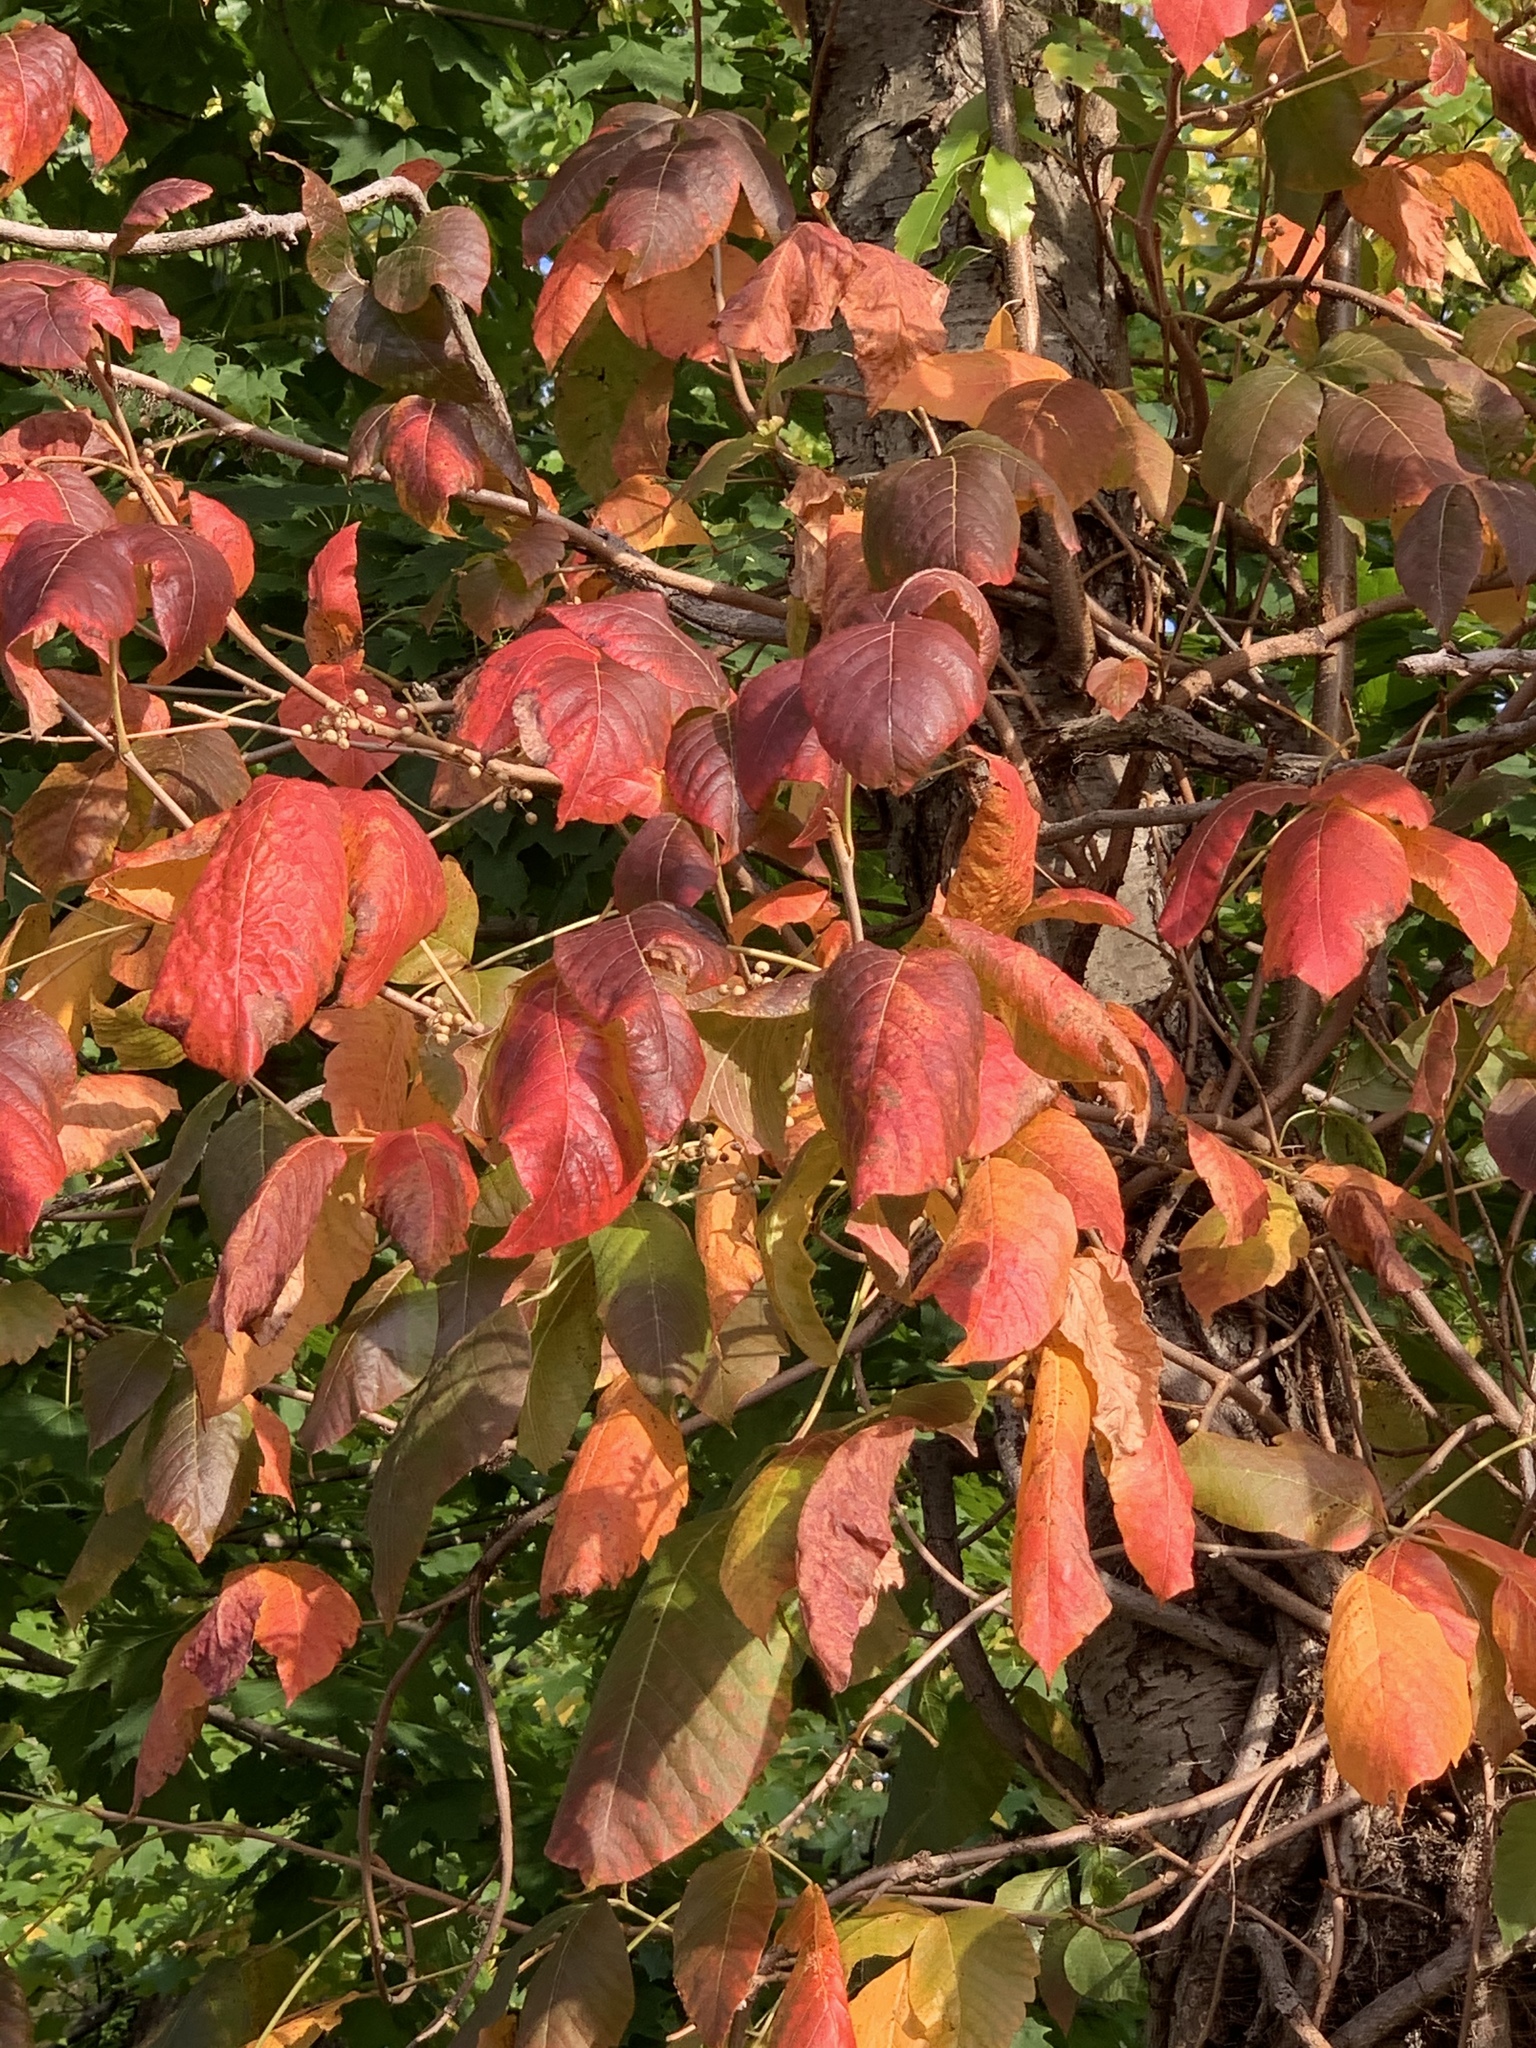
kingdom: Plantae
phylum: Tracheophyta
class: Magnoliopsida
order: Sapindales
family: Anacardiaceae
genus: Toxicodendron
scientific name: Toxicodendron radicans
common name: Poison ivy
